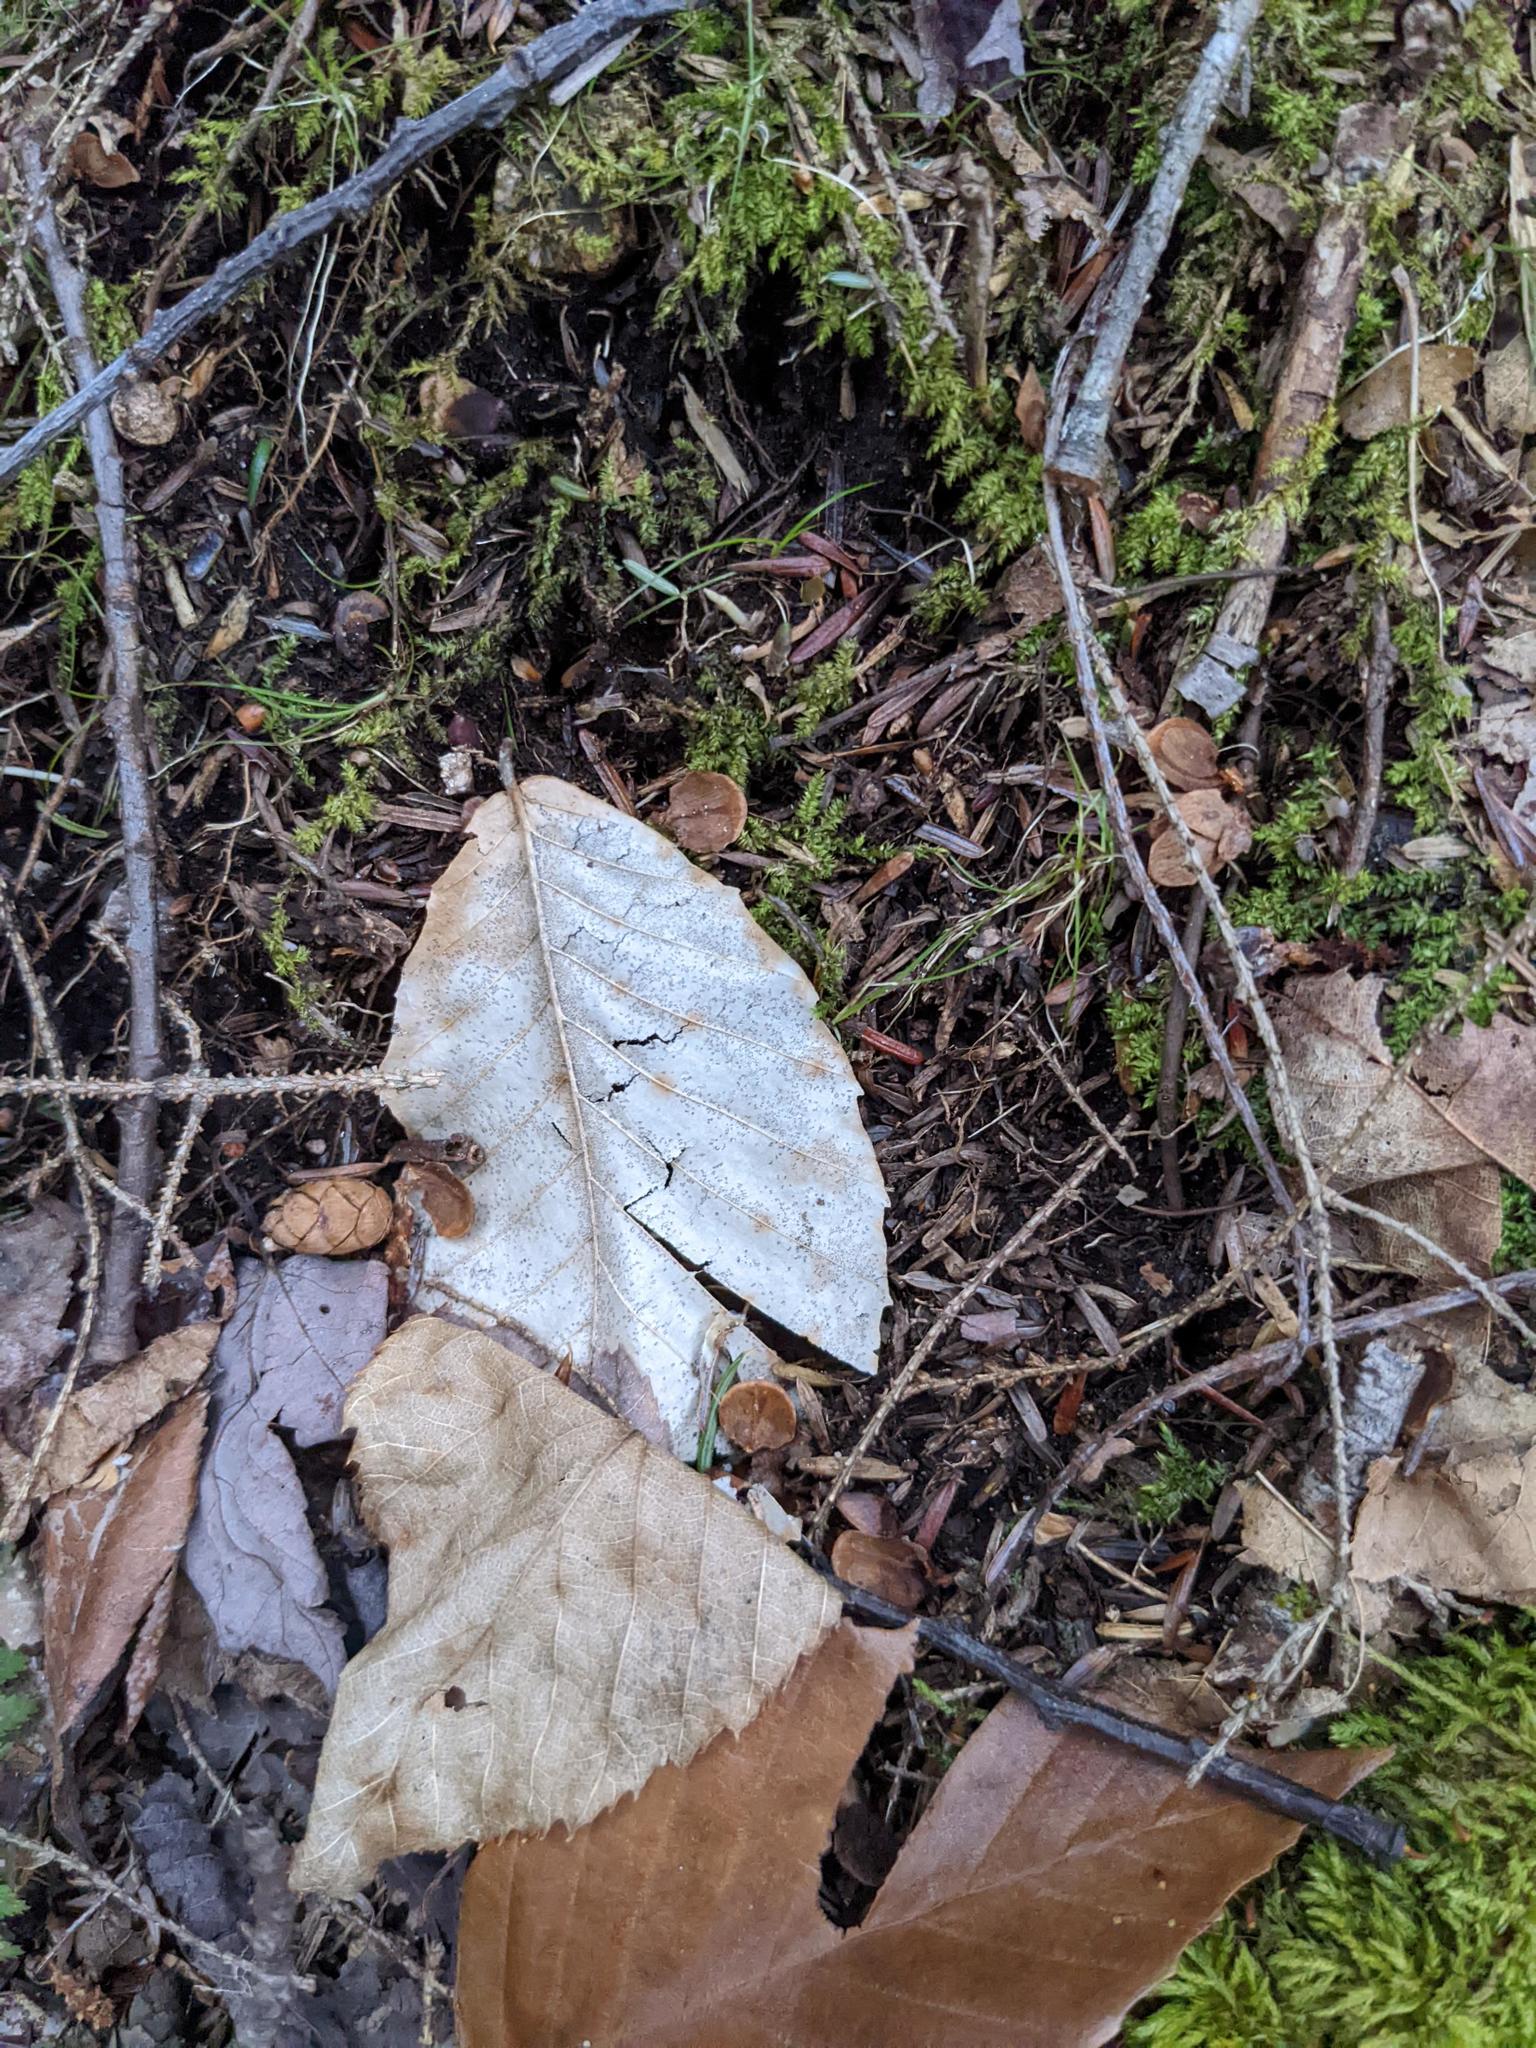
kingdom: Plantae
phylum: Tracheophyta
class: Magnoliopsida
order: Fagales
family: Fagaceae
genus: Fagus
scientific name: Fagus grandifolia
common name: American beech
